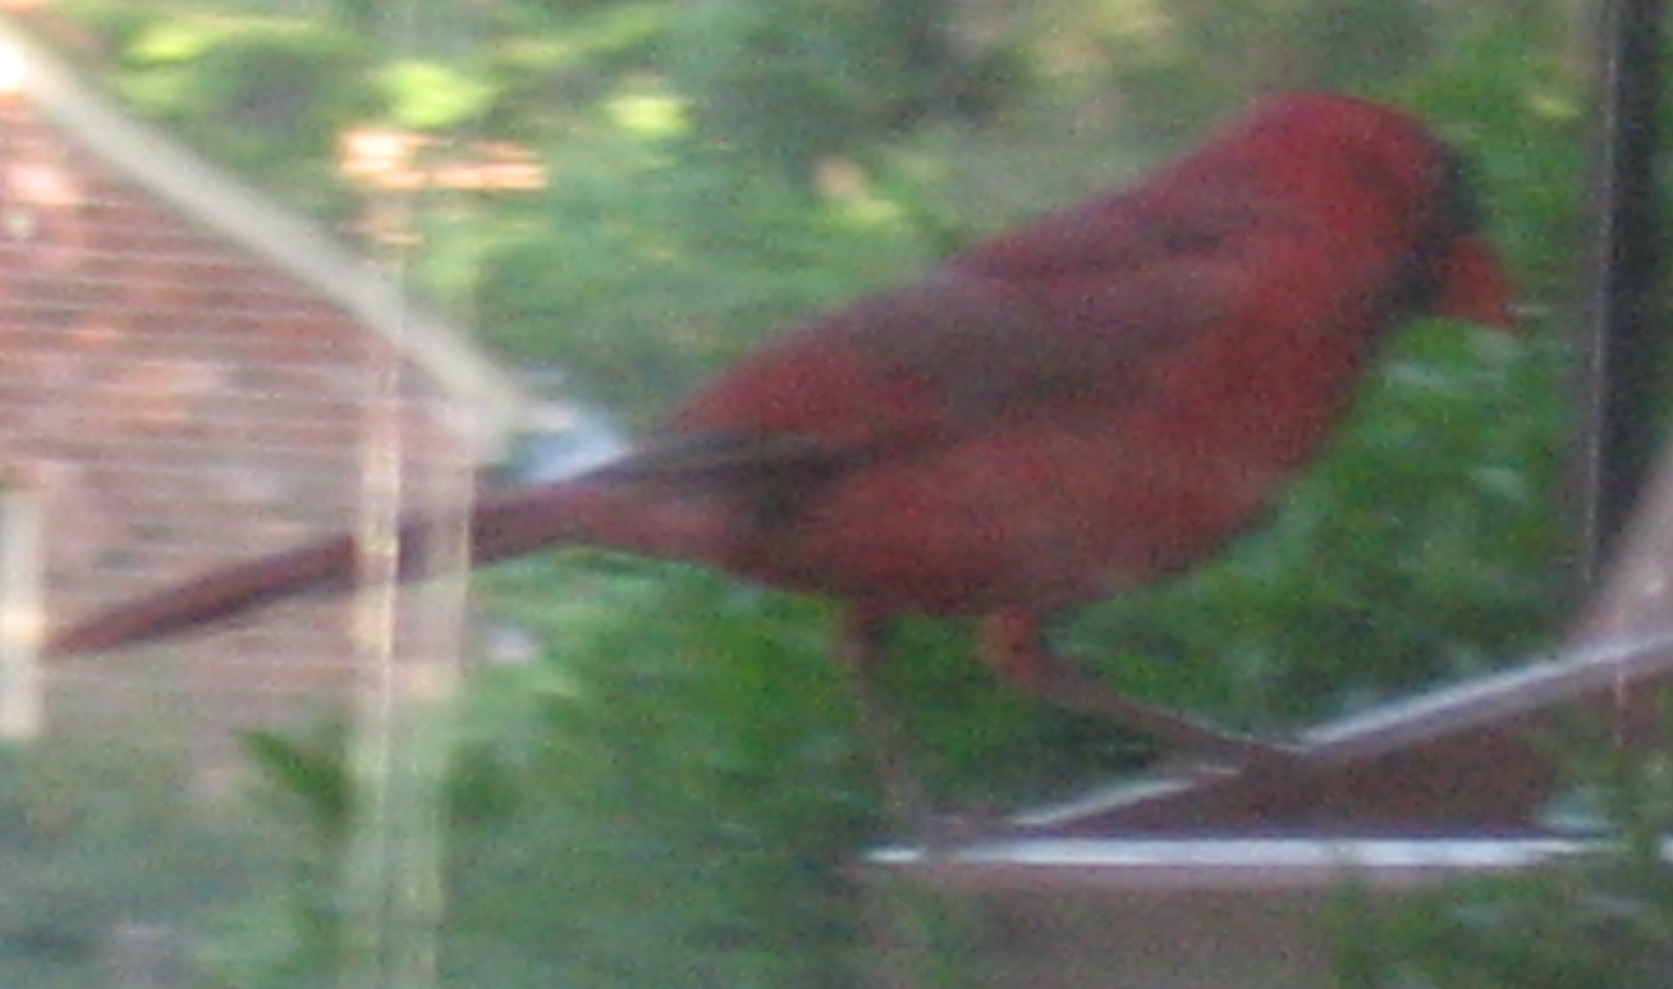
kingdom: Animalia
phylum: Chordata
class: Aves
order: Passeriformes
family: Cardinalidae
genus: Cardinalis
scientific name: Cardinalis cardinalis
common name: Northern cardinal
